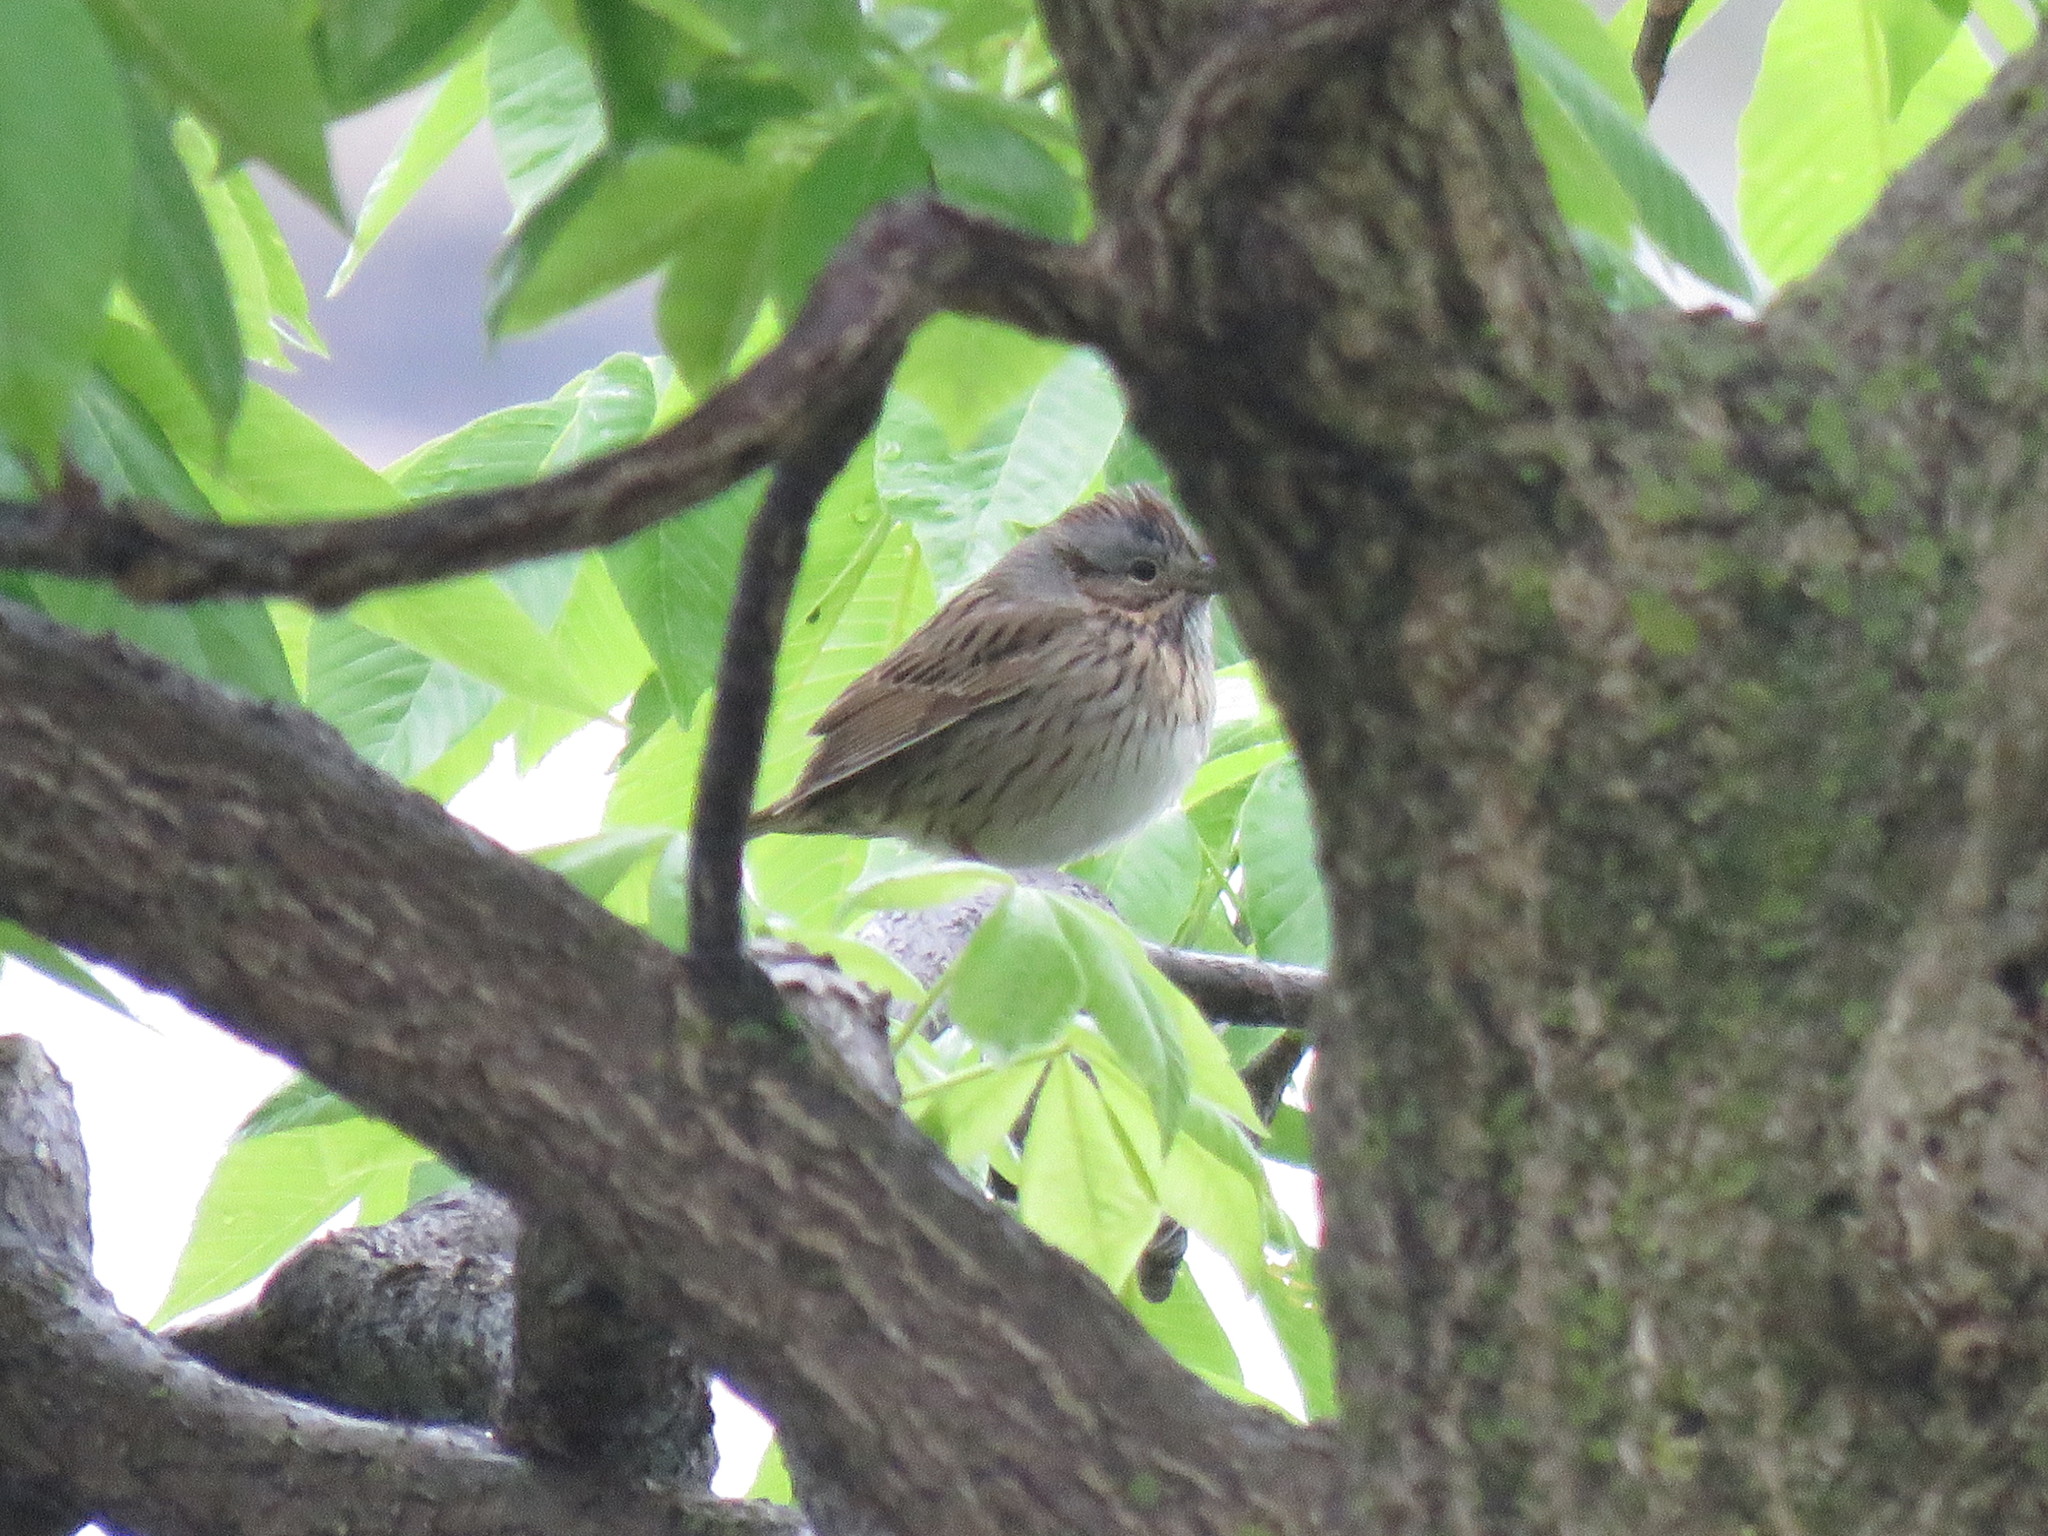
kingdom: Animalia
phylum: Chordata
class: Aves
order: Passeriformes
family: Passerellidae
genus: Melospiza
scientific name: Melospiza lincolnii
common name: Lincoln's sparrow
